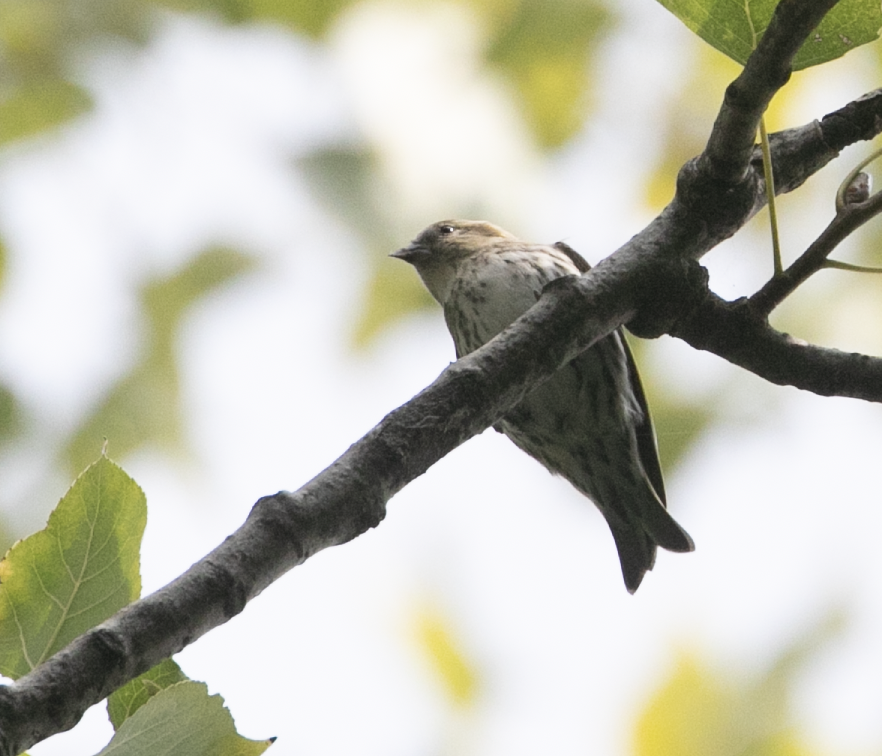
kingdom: Animalia
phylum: Chordata
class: Aves
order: Passeriformes
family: Fringillidae
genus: Spinus
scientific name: Spinus spinus
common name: Eurasian siskin
